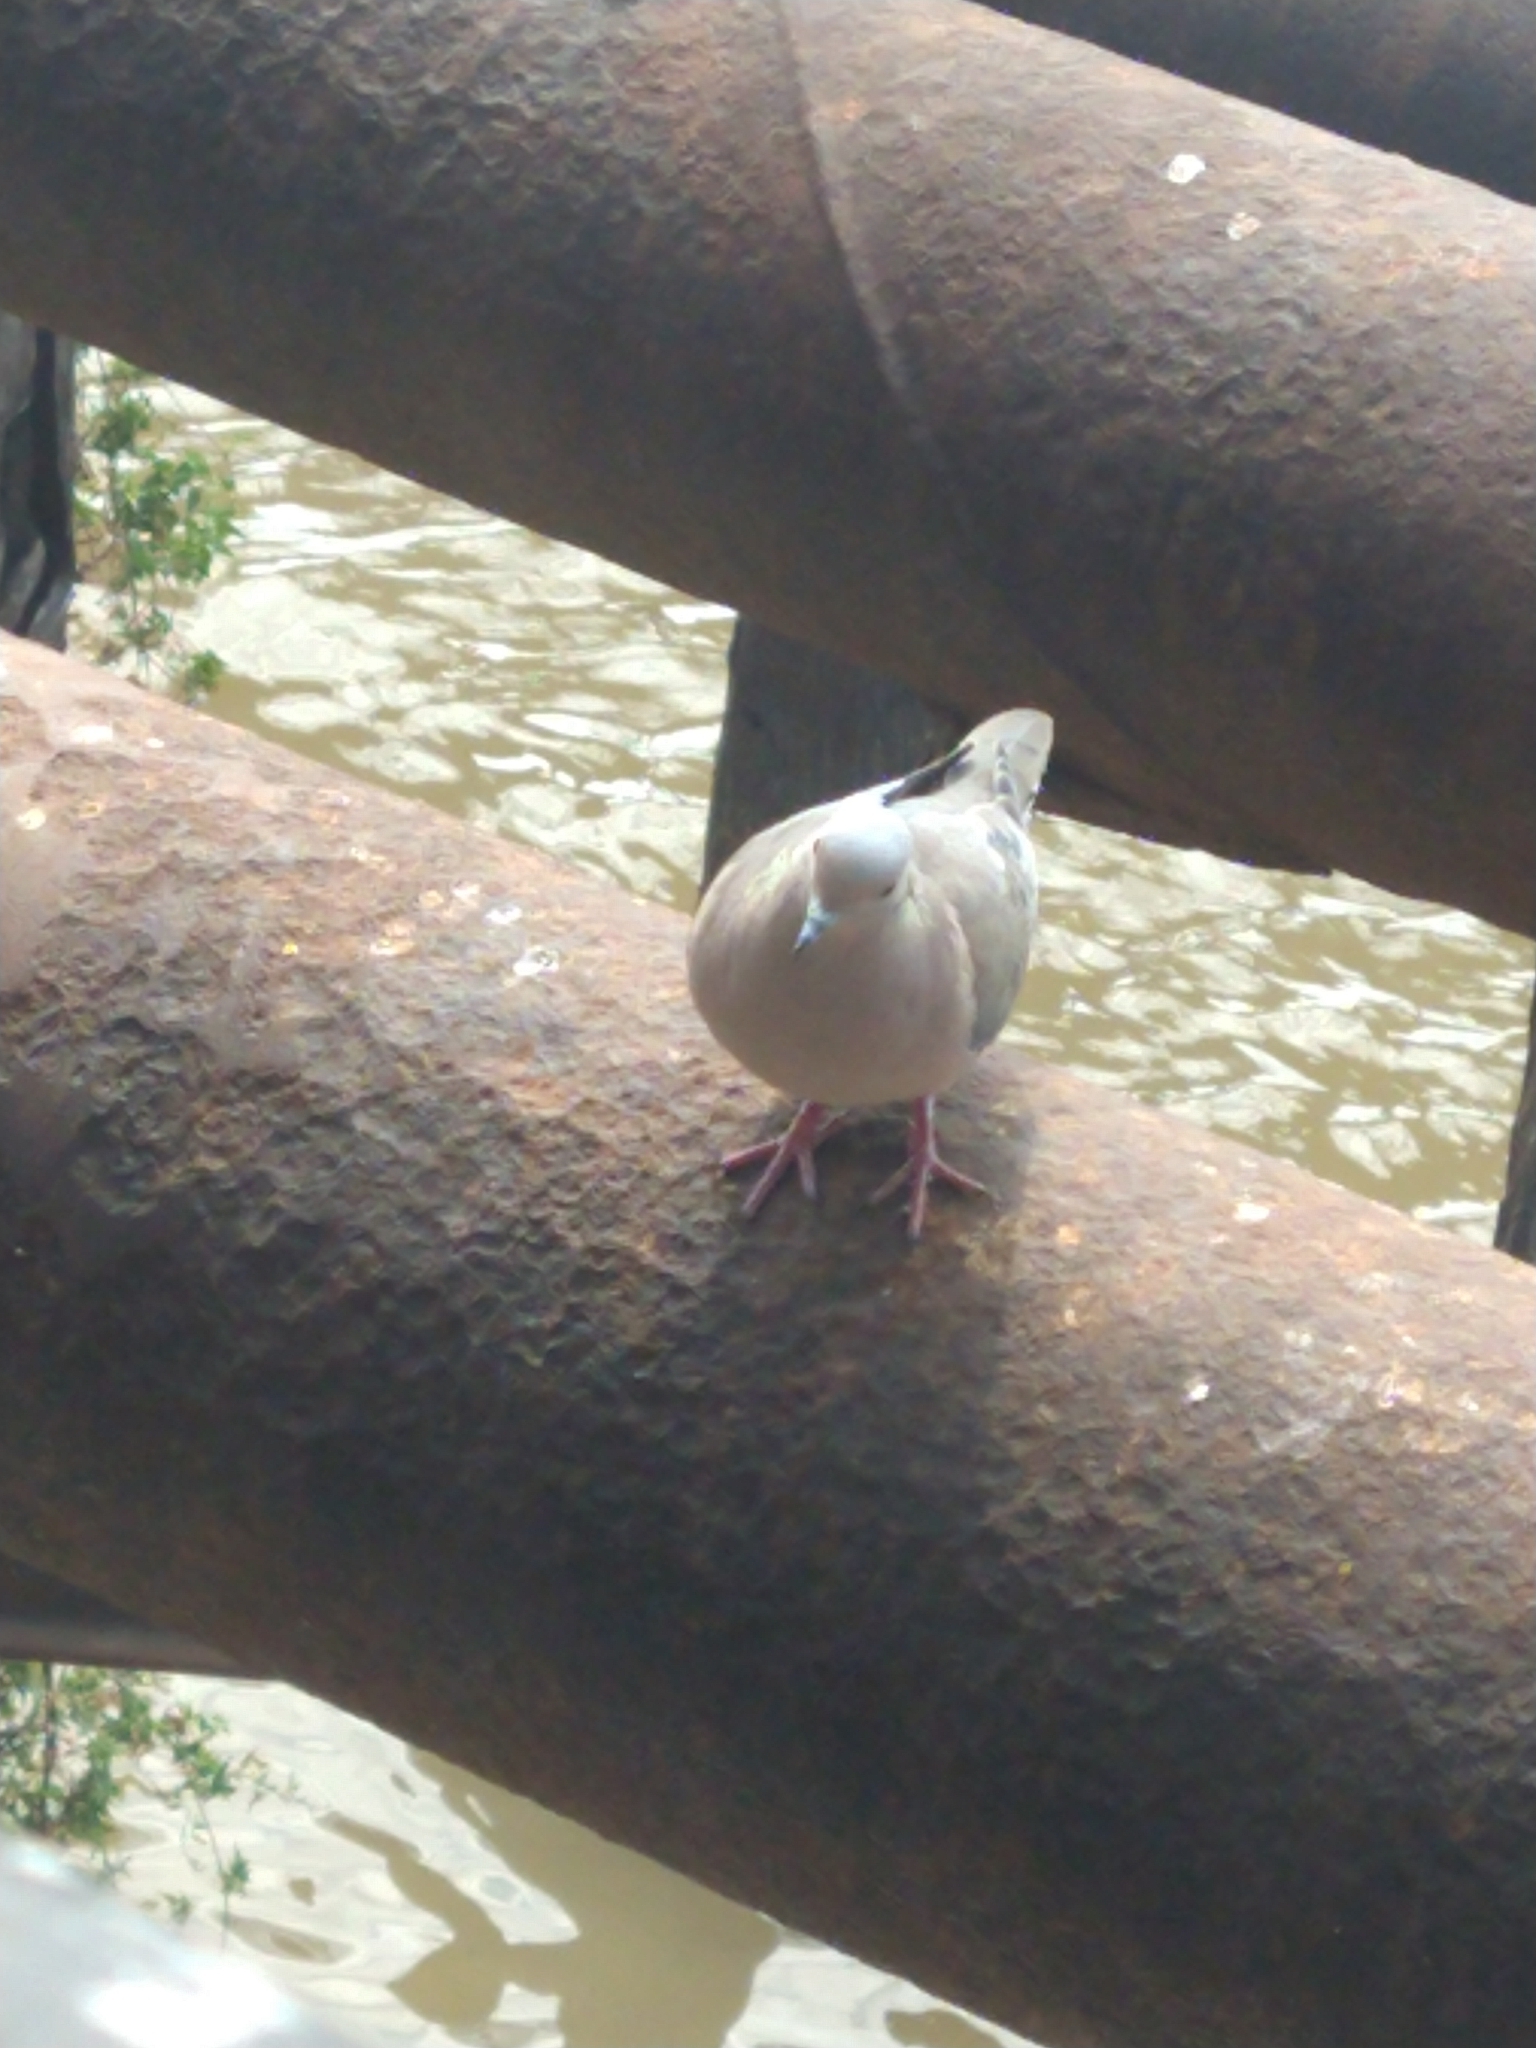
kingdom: Animalia
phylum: Chordata
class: Aves
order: Columbiformes
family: Columbidae
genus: Zenaida
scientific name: Zenaida auriculata
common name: Eared dove
